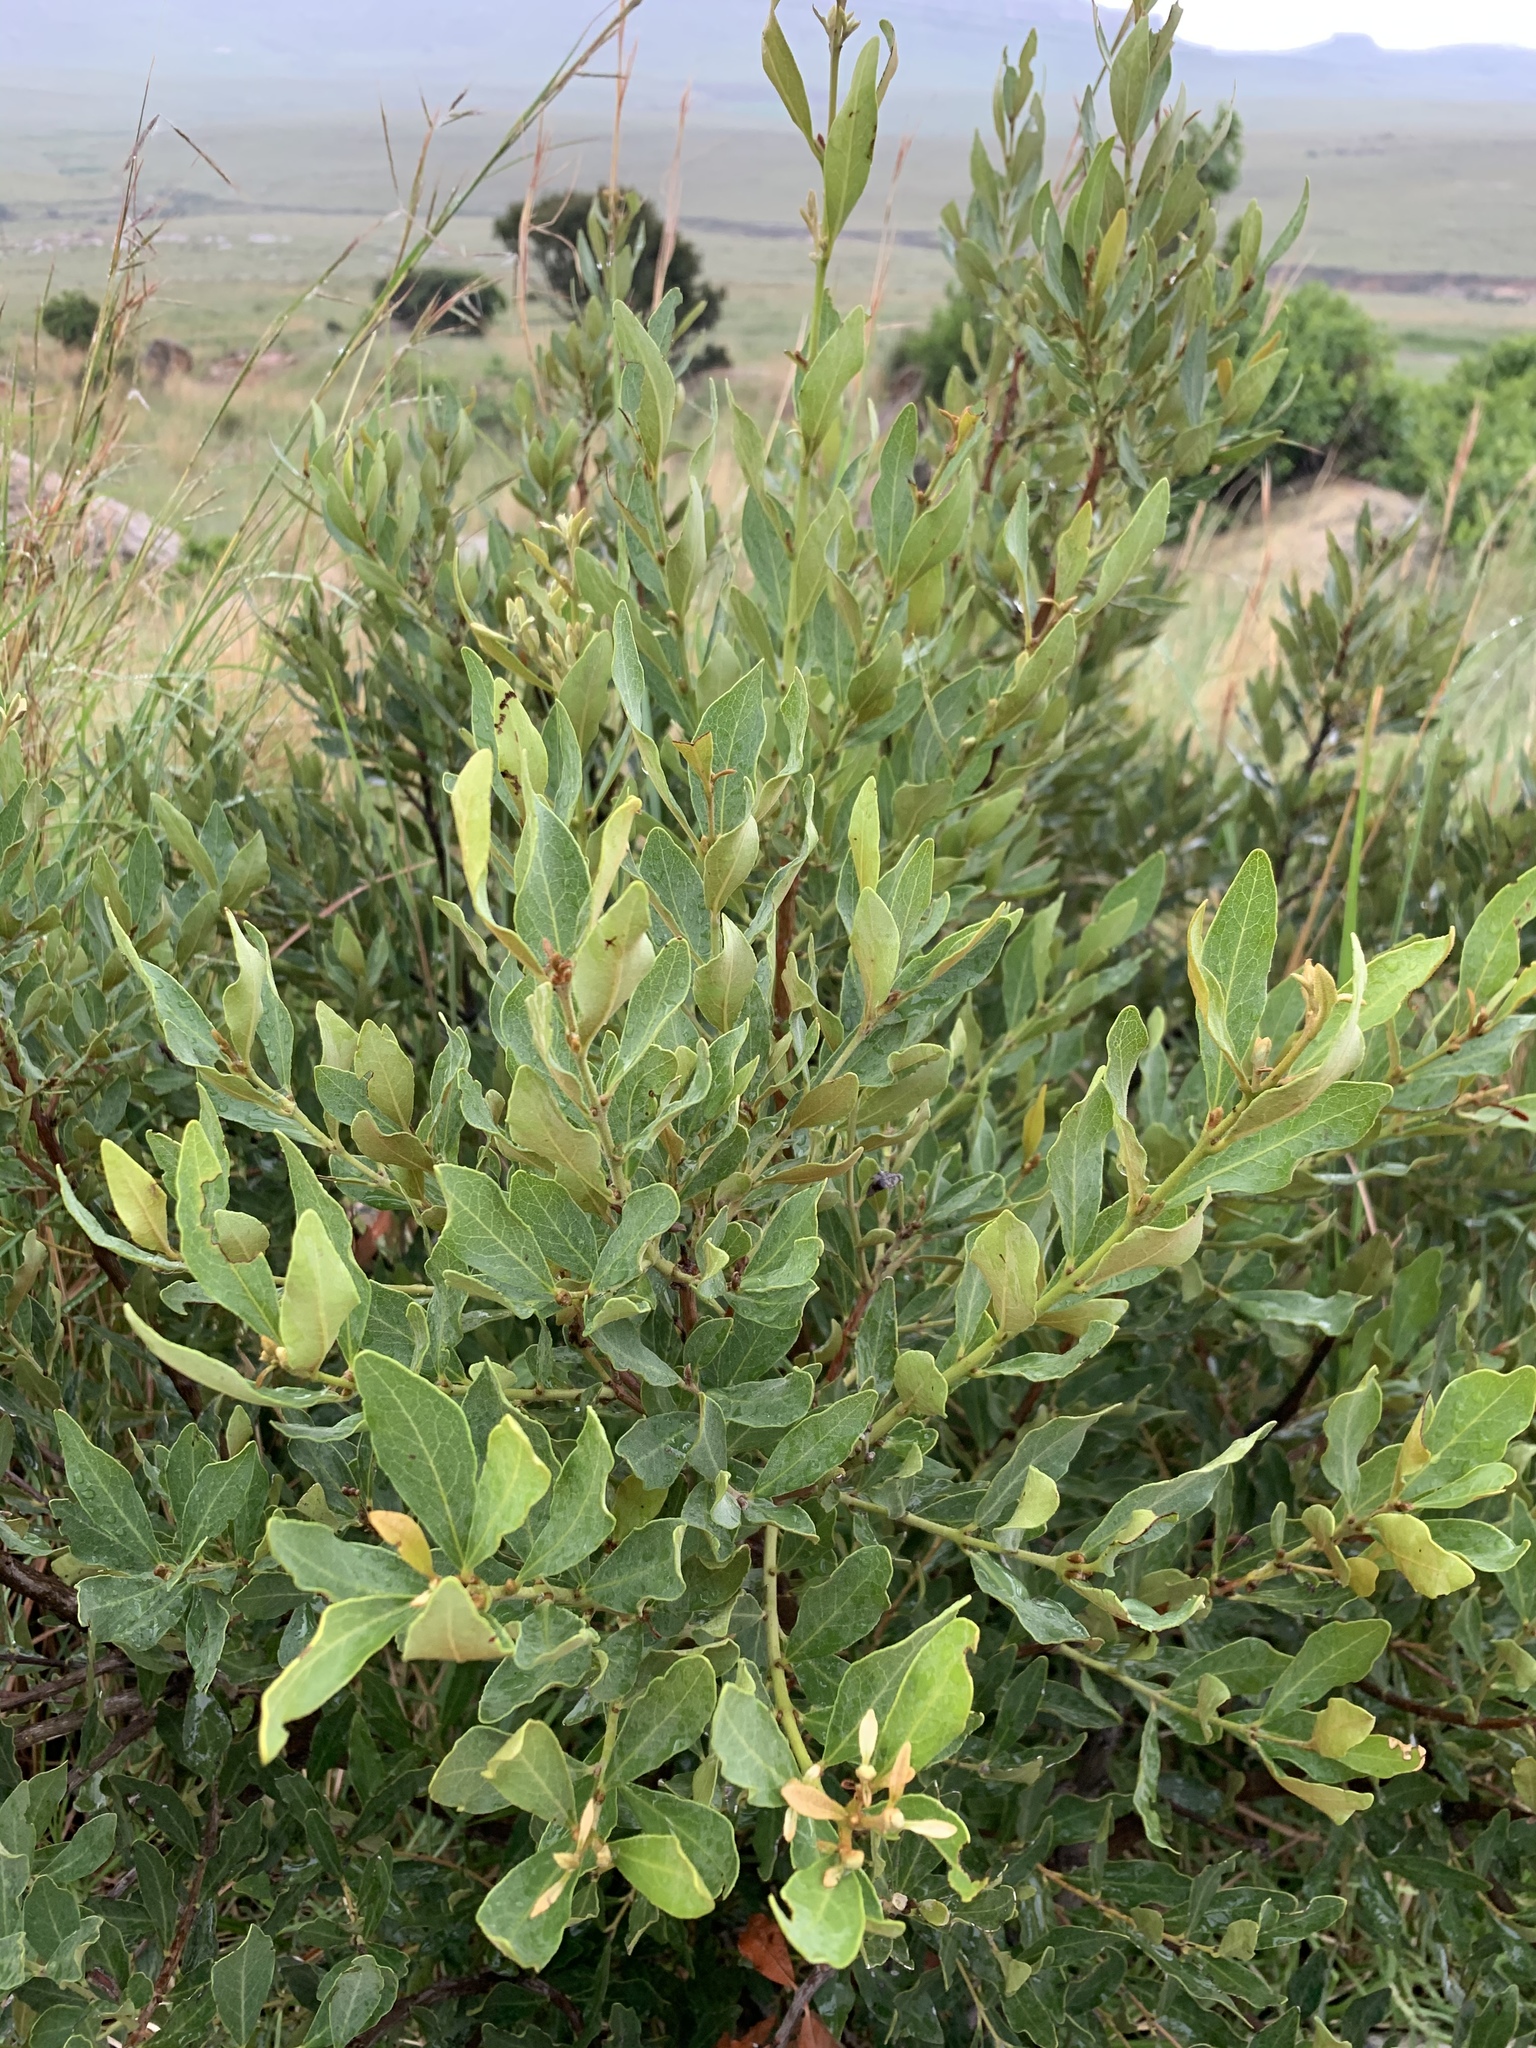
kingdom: Plantae
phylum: Tracheophyta
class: Magnoliopsida
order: Ericales
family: Ebenaceae
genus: Euclea
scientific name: Euclea crispa
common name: Blue guarri
